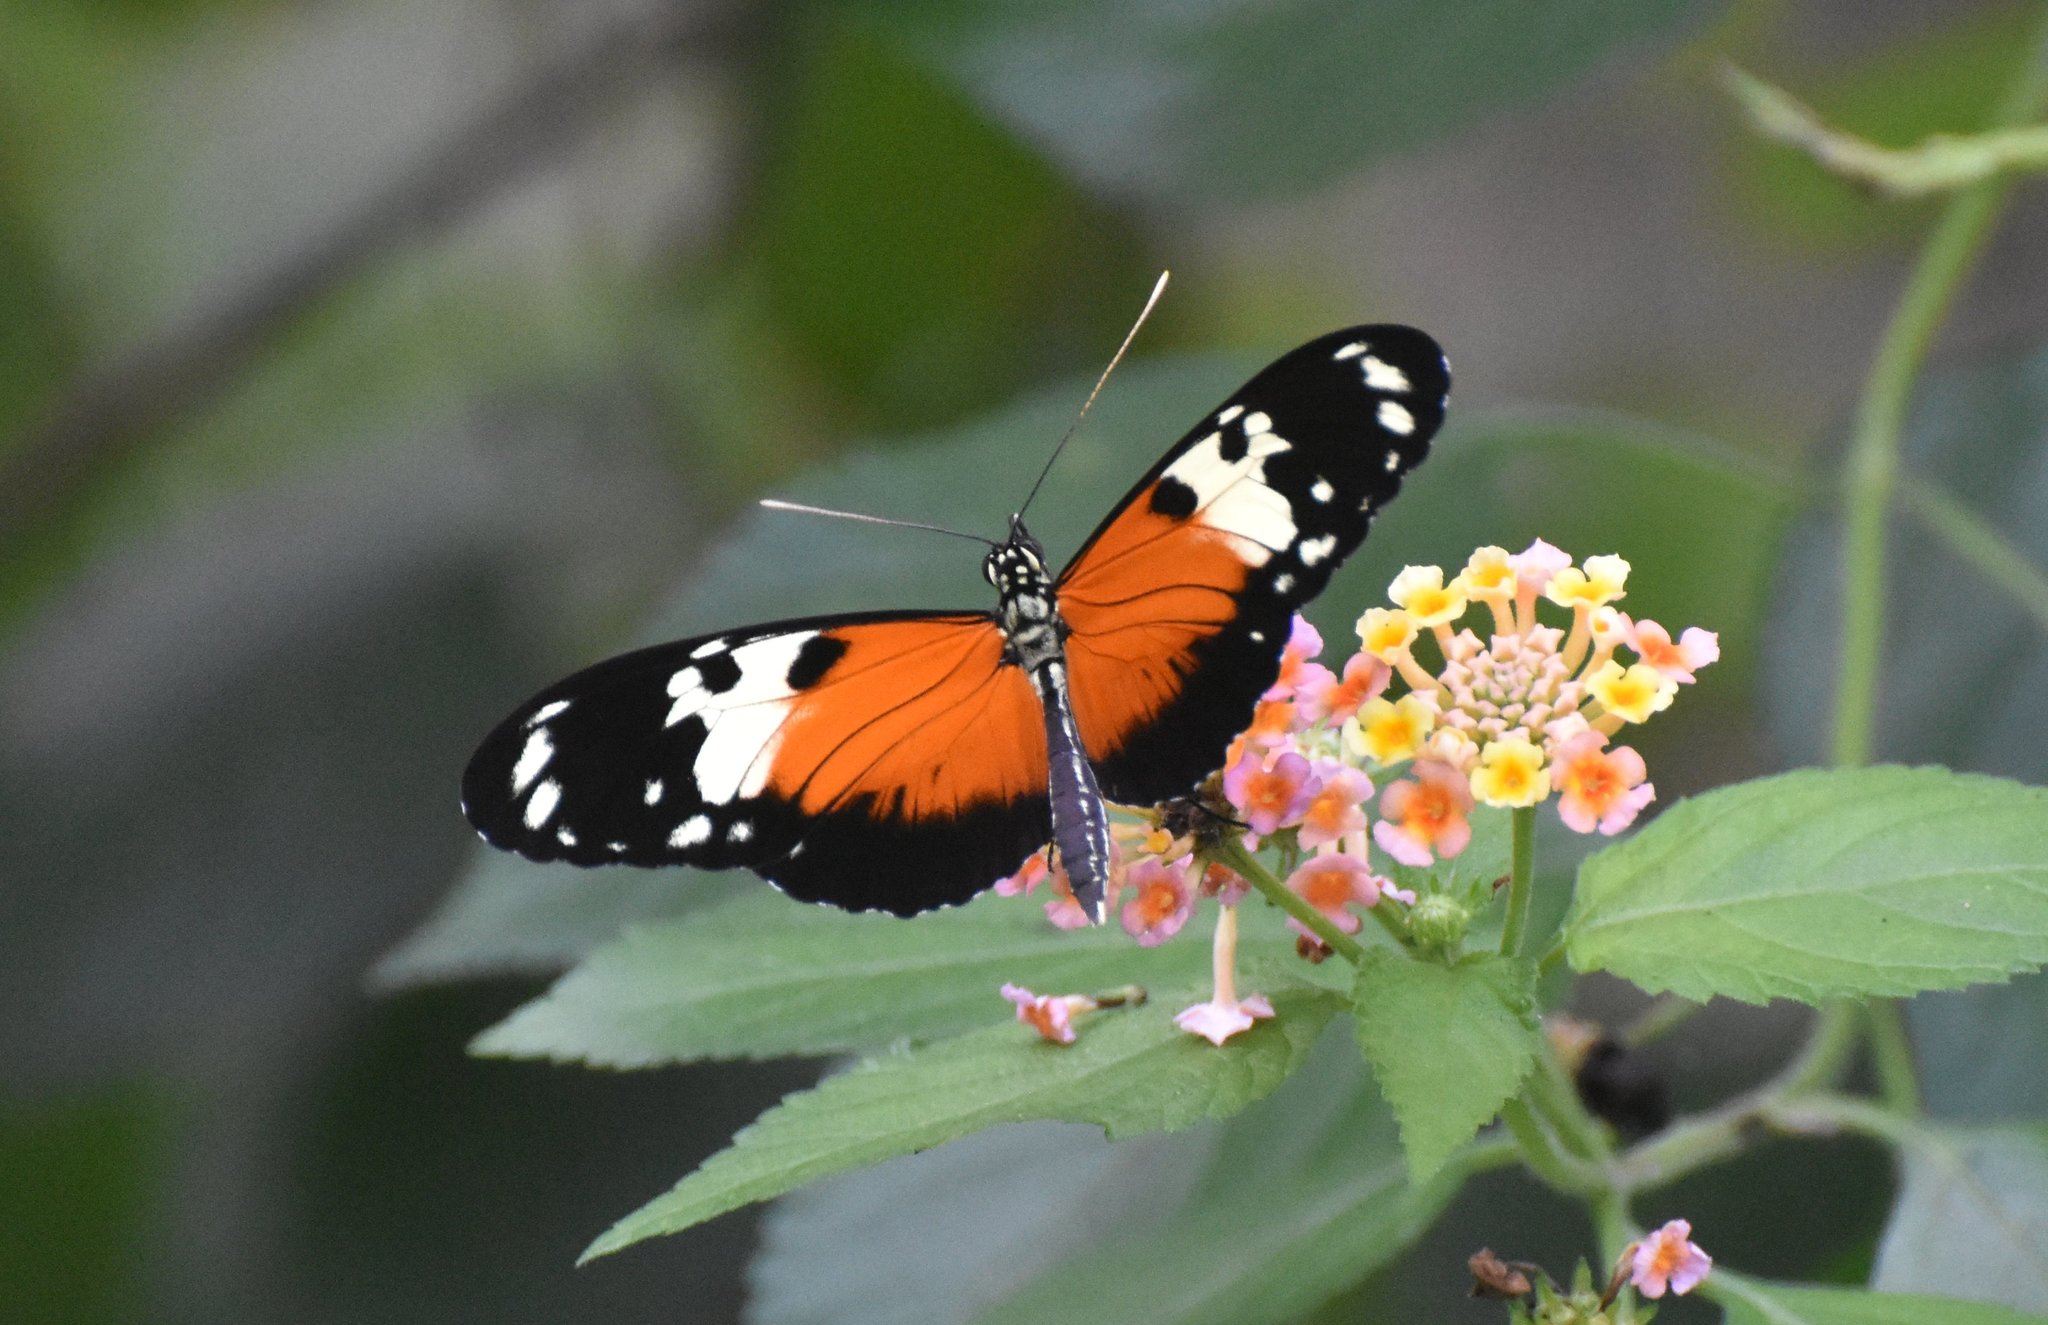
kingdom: Animalia
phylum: Arthropoda
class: Insecta
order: Lepidoptera
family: Nymphalidae
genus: Heliconius
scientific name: Heliconius hecale
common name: Tiger longwing
